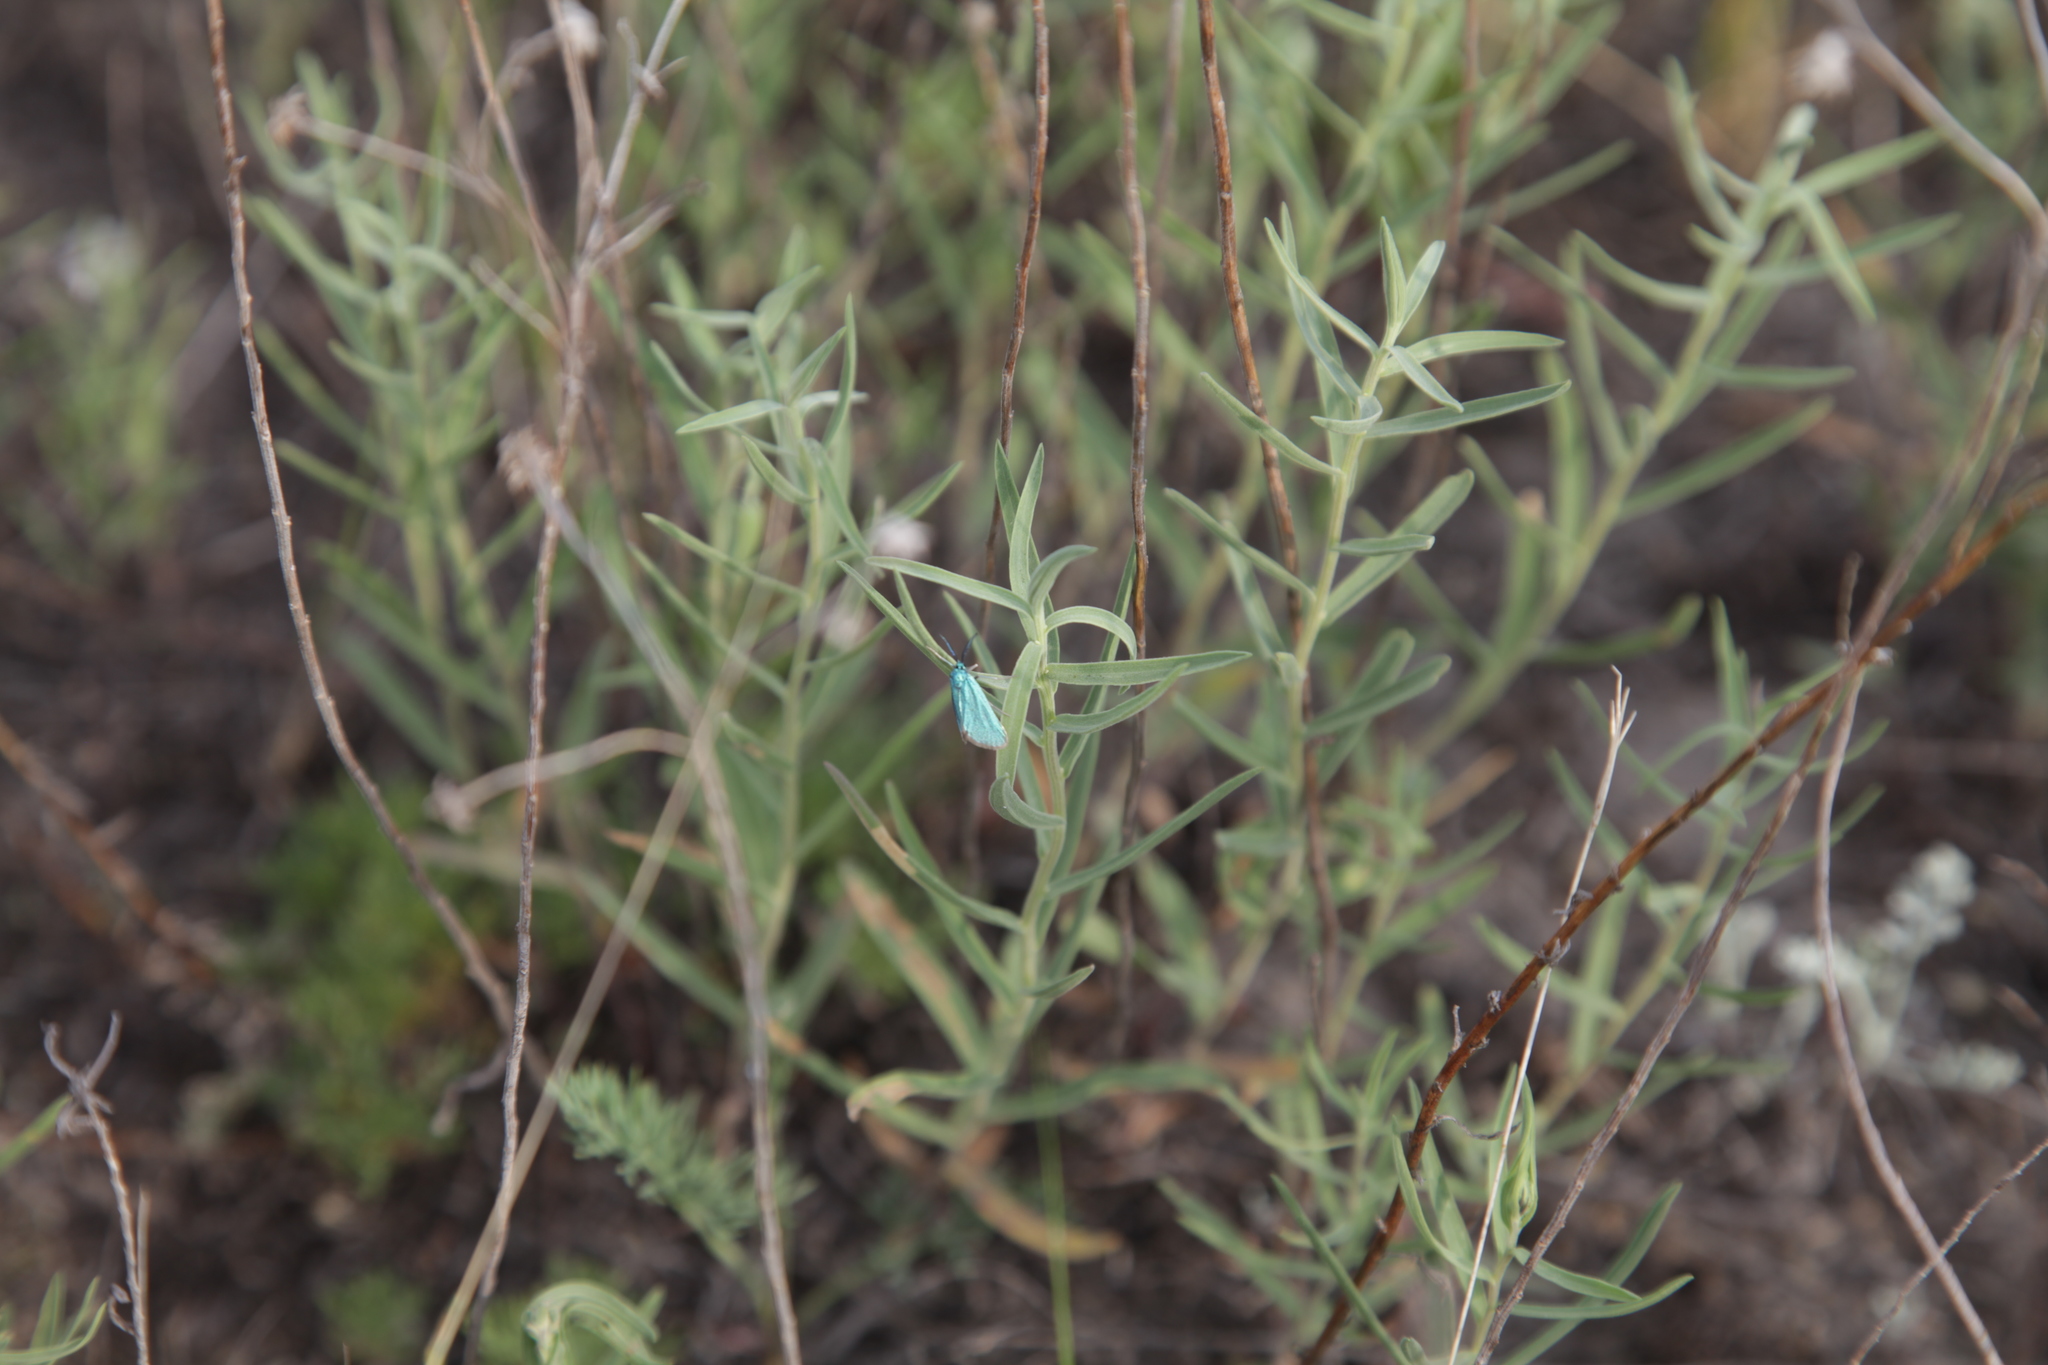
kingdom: Animalia
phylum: Arthropoda
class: Insecta
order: Lepidoptera
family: Zygaenidae
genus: Jordanita
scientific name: Jordanita volgensis
